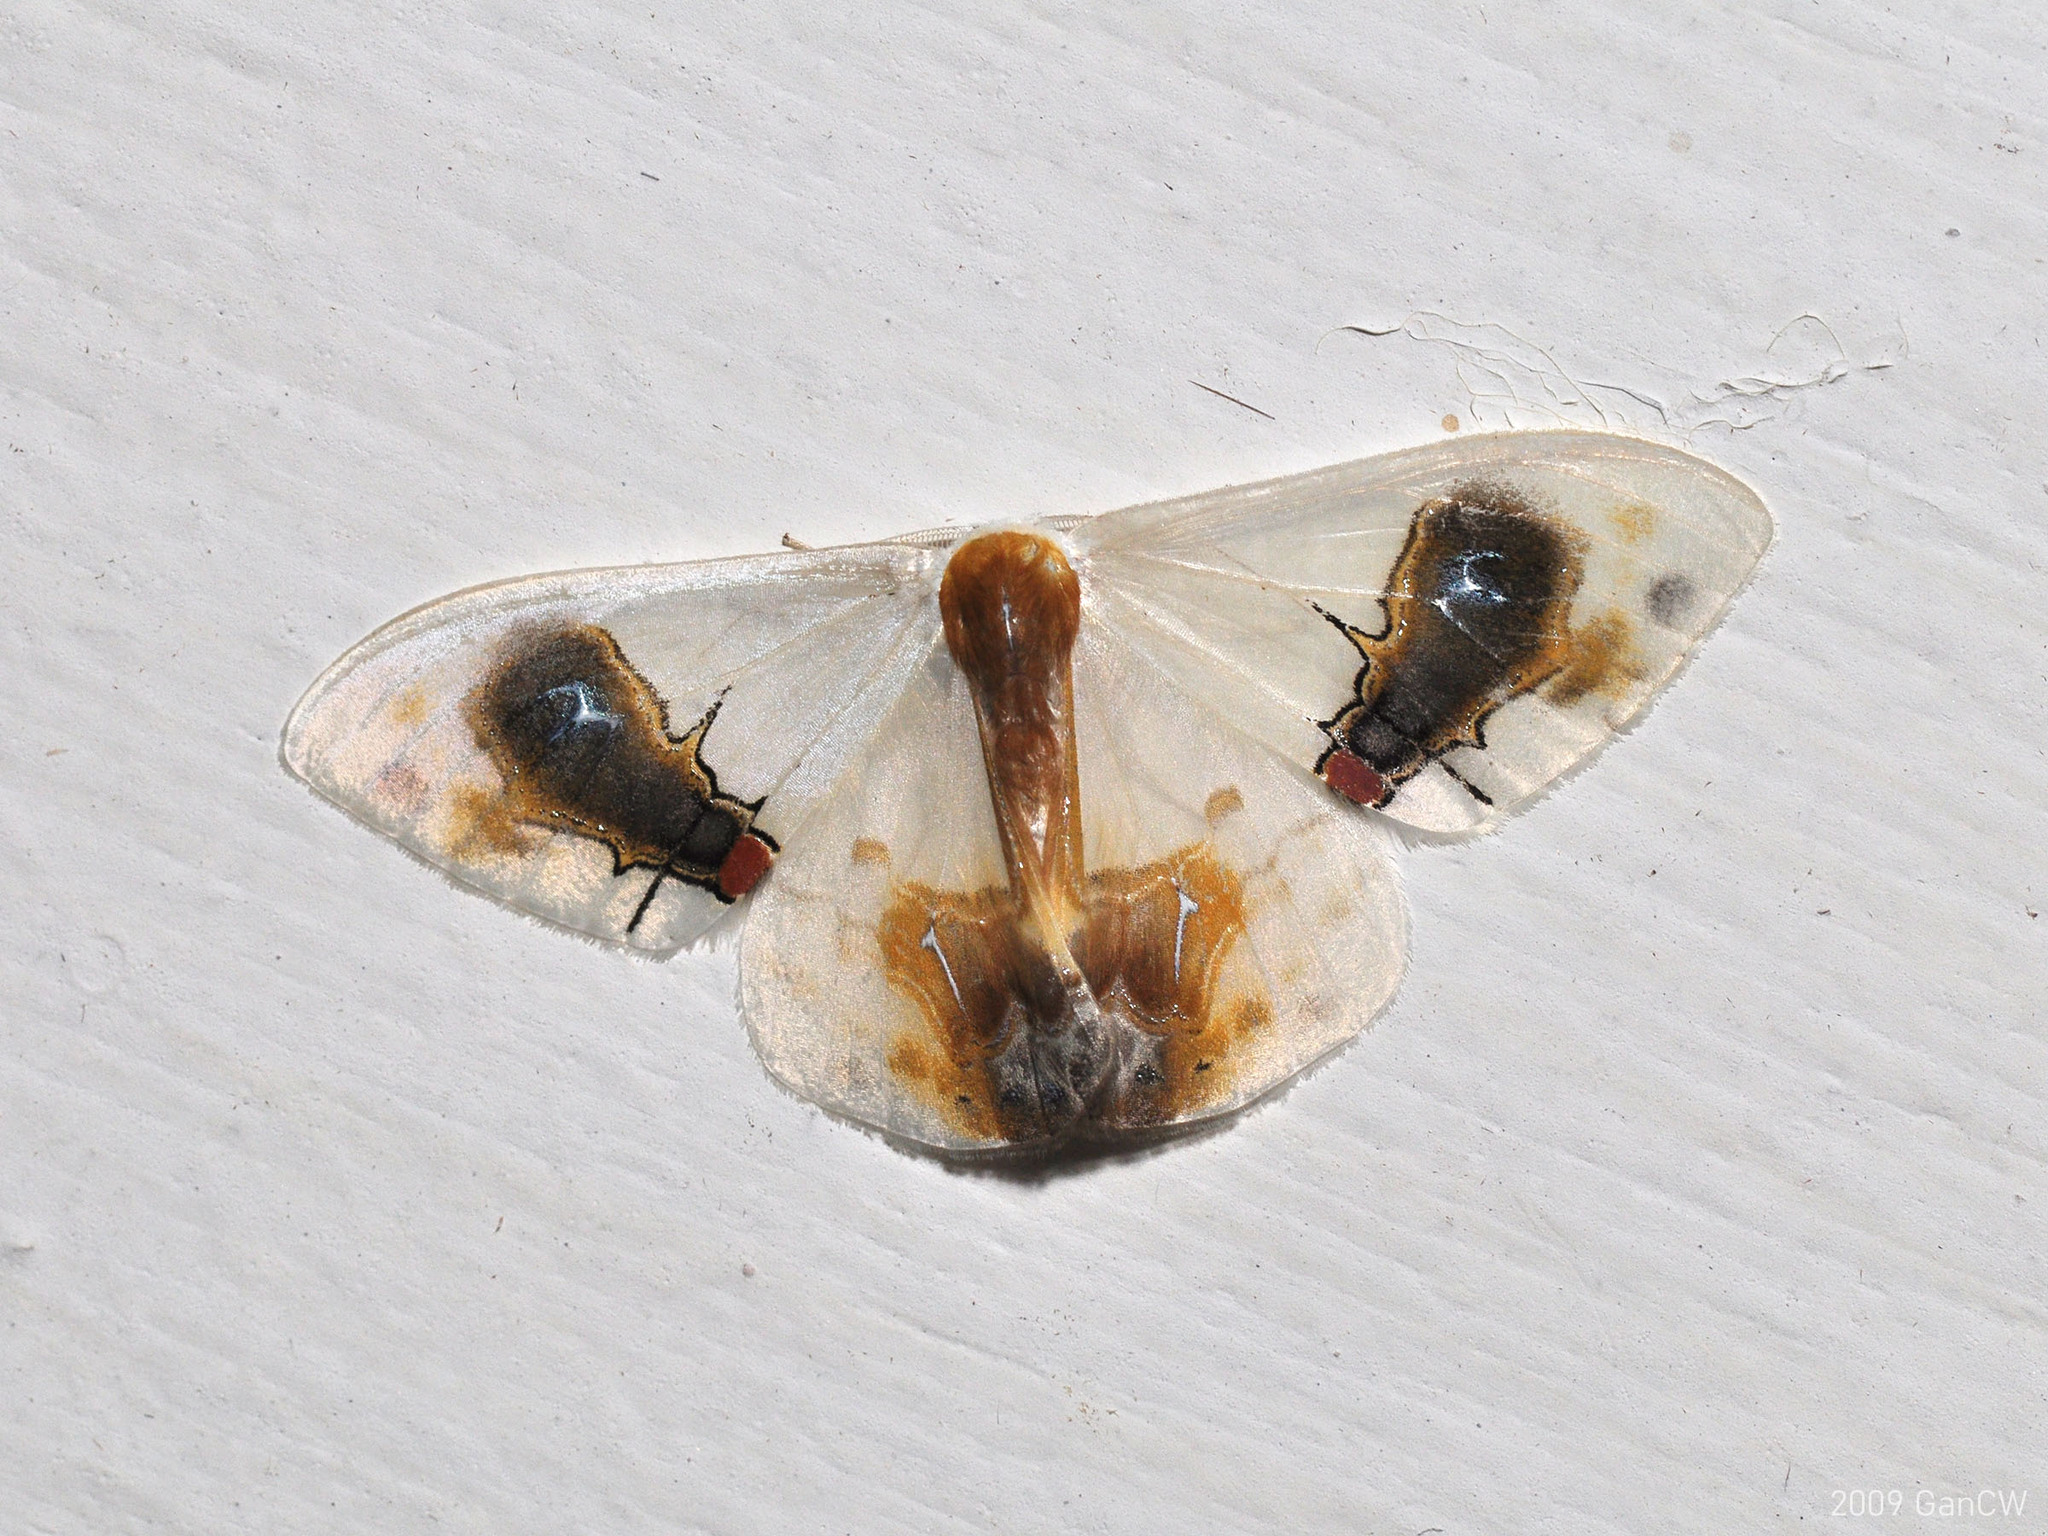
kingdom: Animalia
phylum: Arthropoda
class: Insecta
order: Lepidoptera
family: Drepanidae
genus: Macrocilix
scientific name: Macrocilix maia
